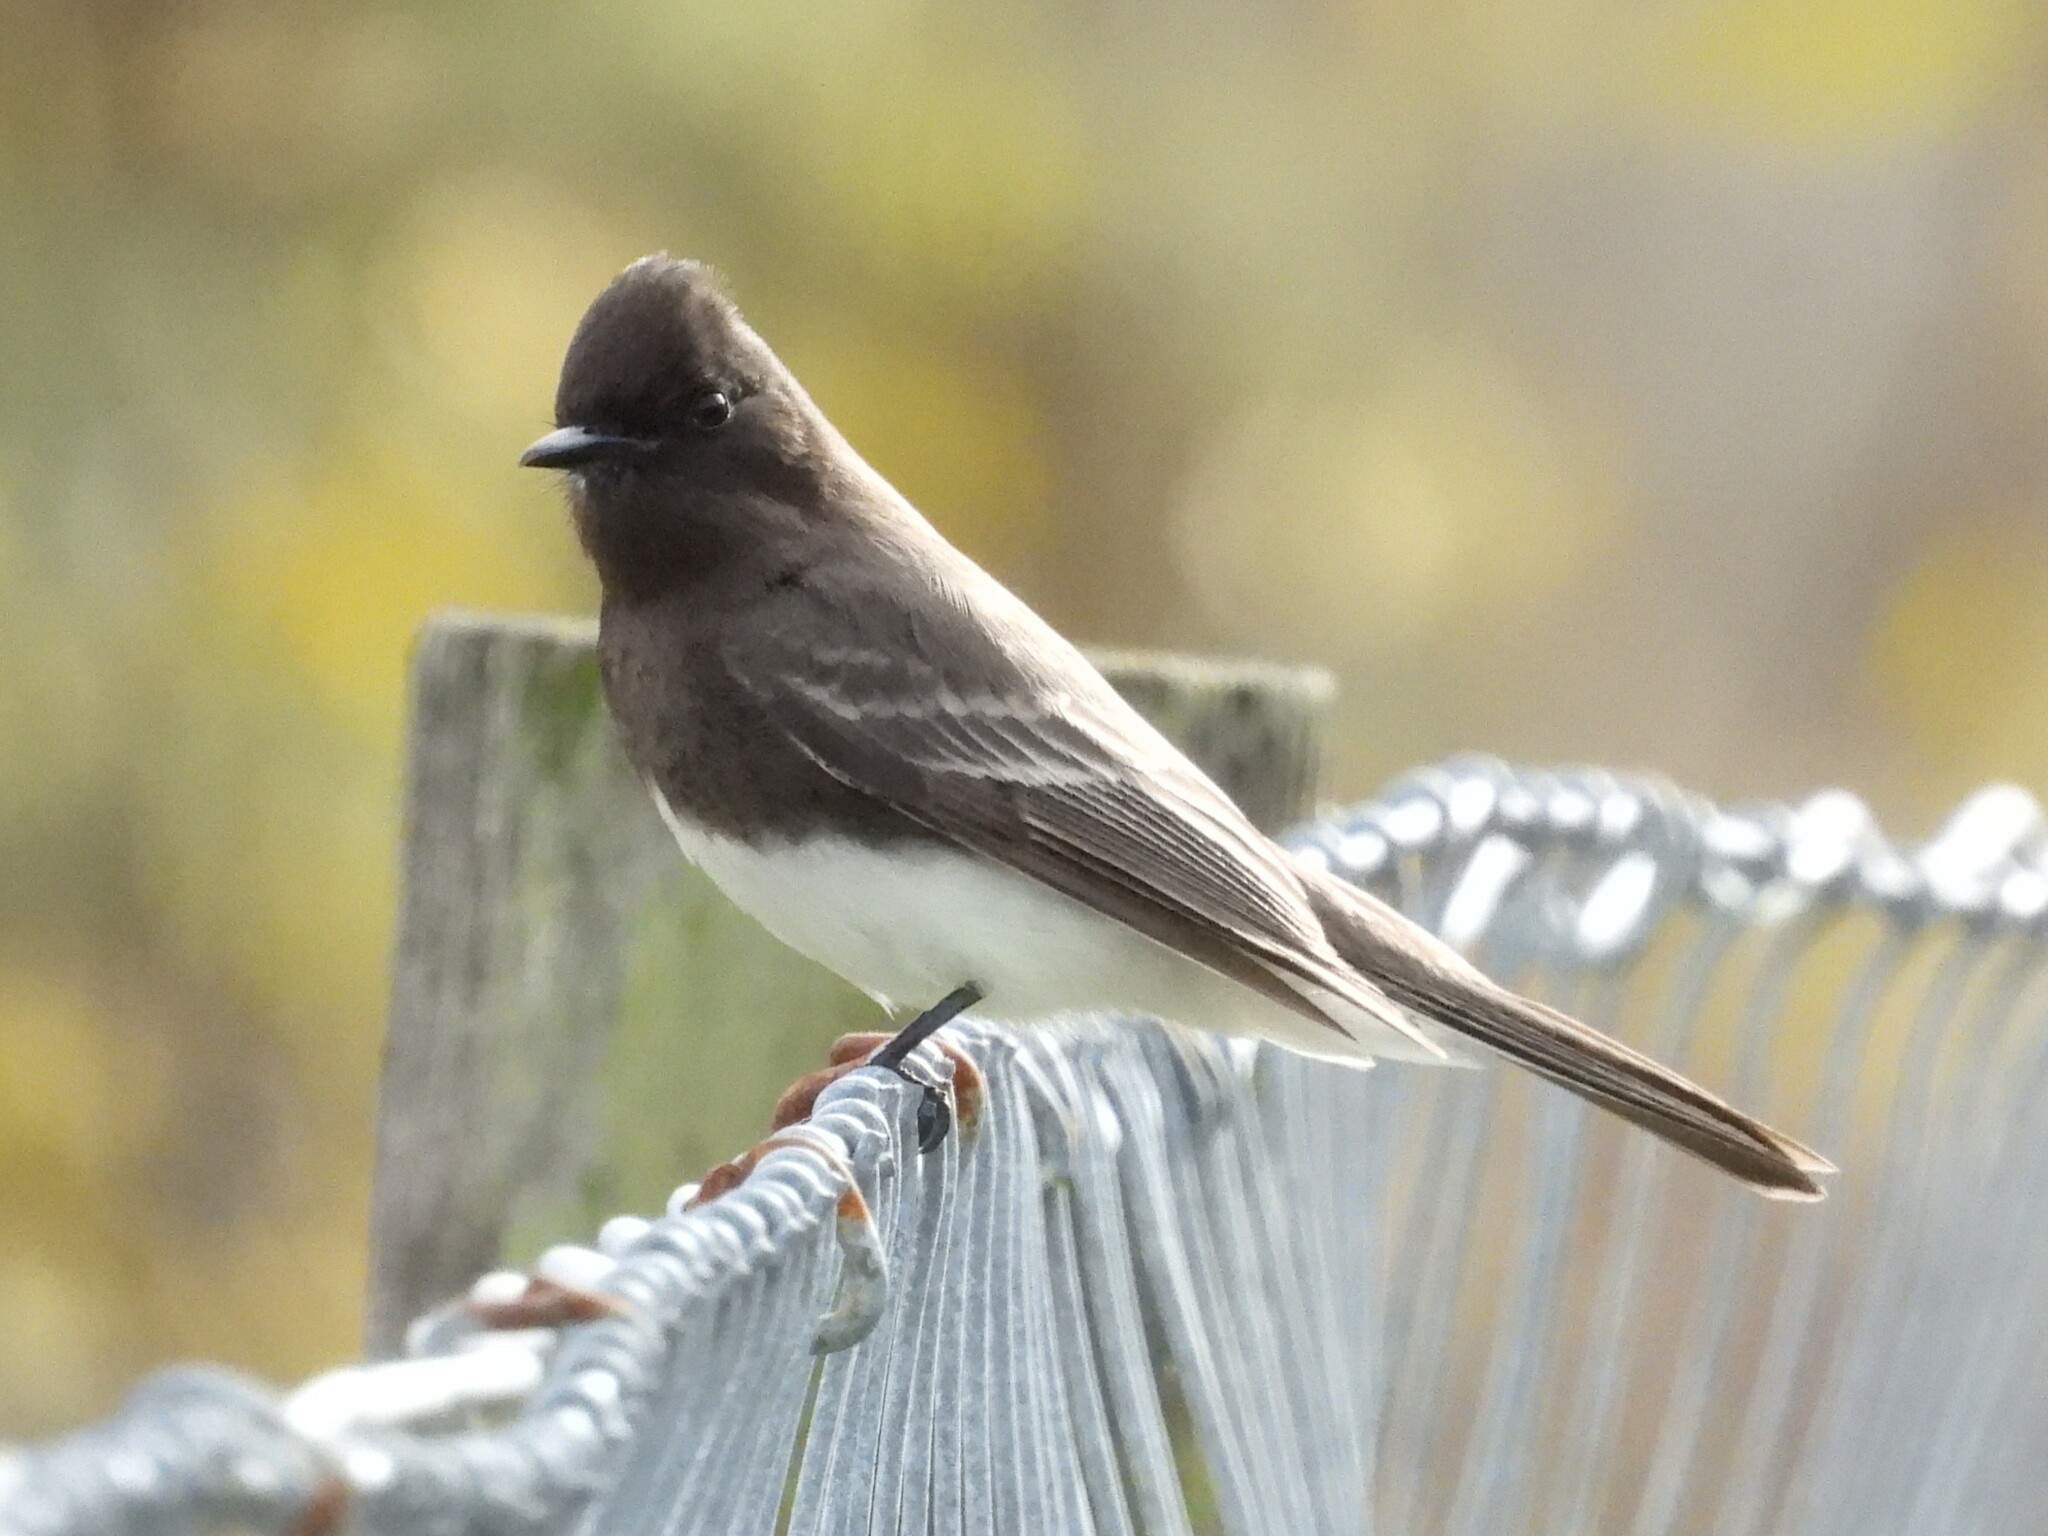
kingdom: Animalia
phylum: Chordata
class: Aves
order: Passeriformes
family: Tyrannidae
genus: Sayornis
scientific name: Sayornis nigricans
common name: Black phoebe
